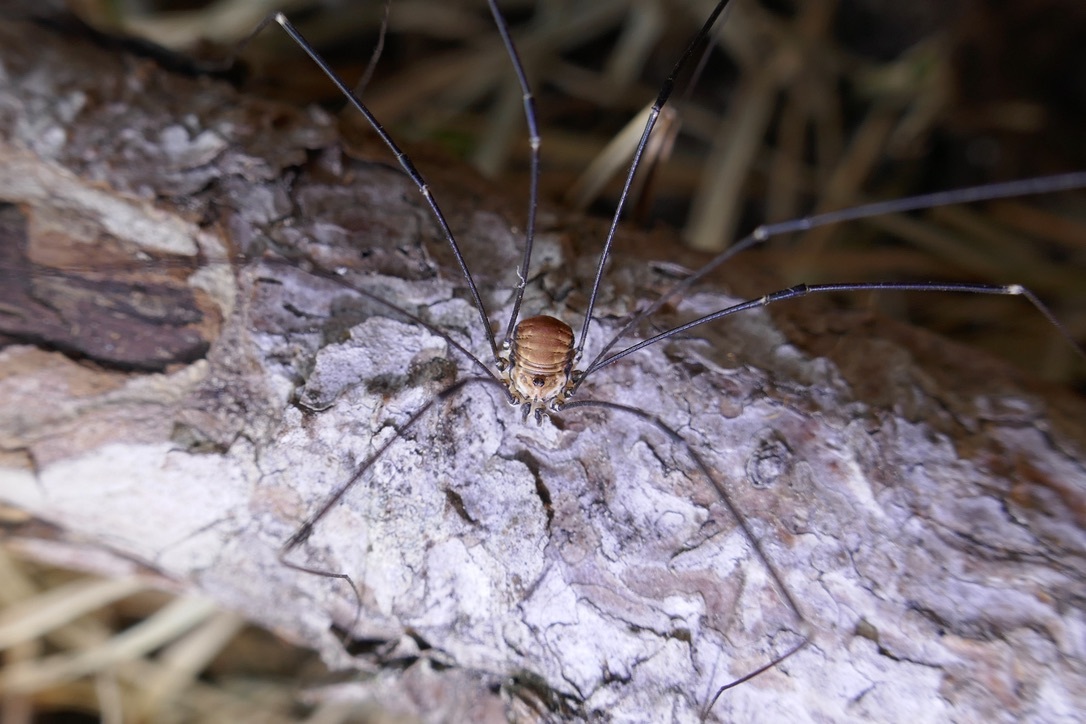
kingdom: Animalia
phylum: Arthropoda
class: Arachnida
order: Opiliones
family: Sclerosomatidae
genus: Leiobunum
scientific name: Leiobunum limbatum
